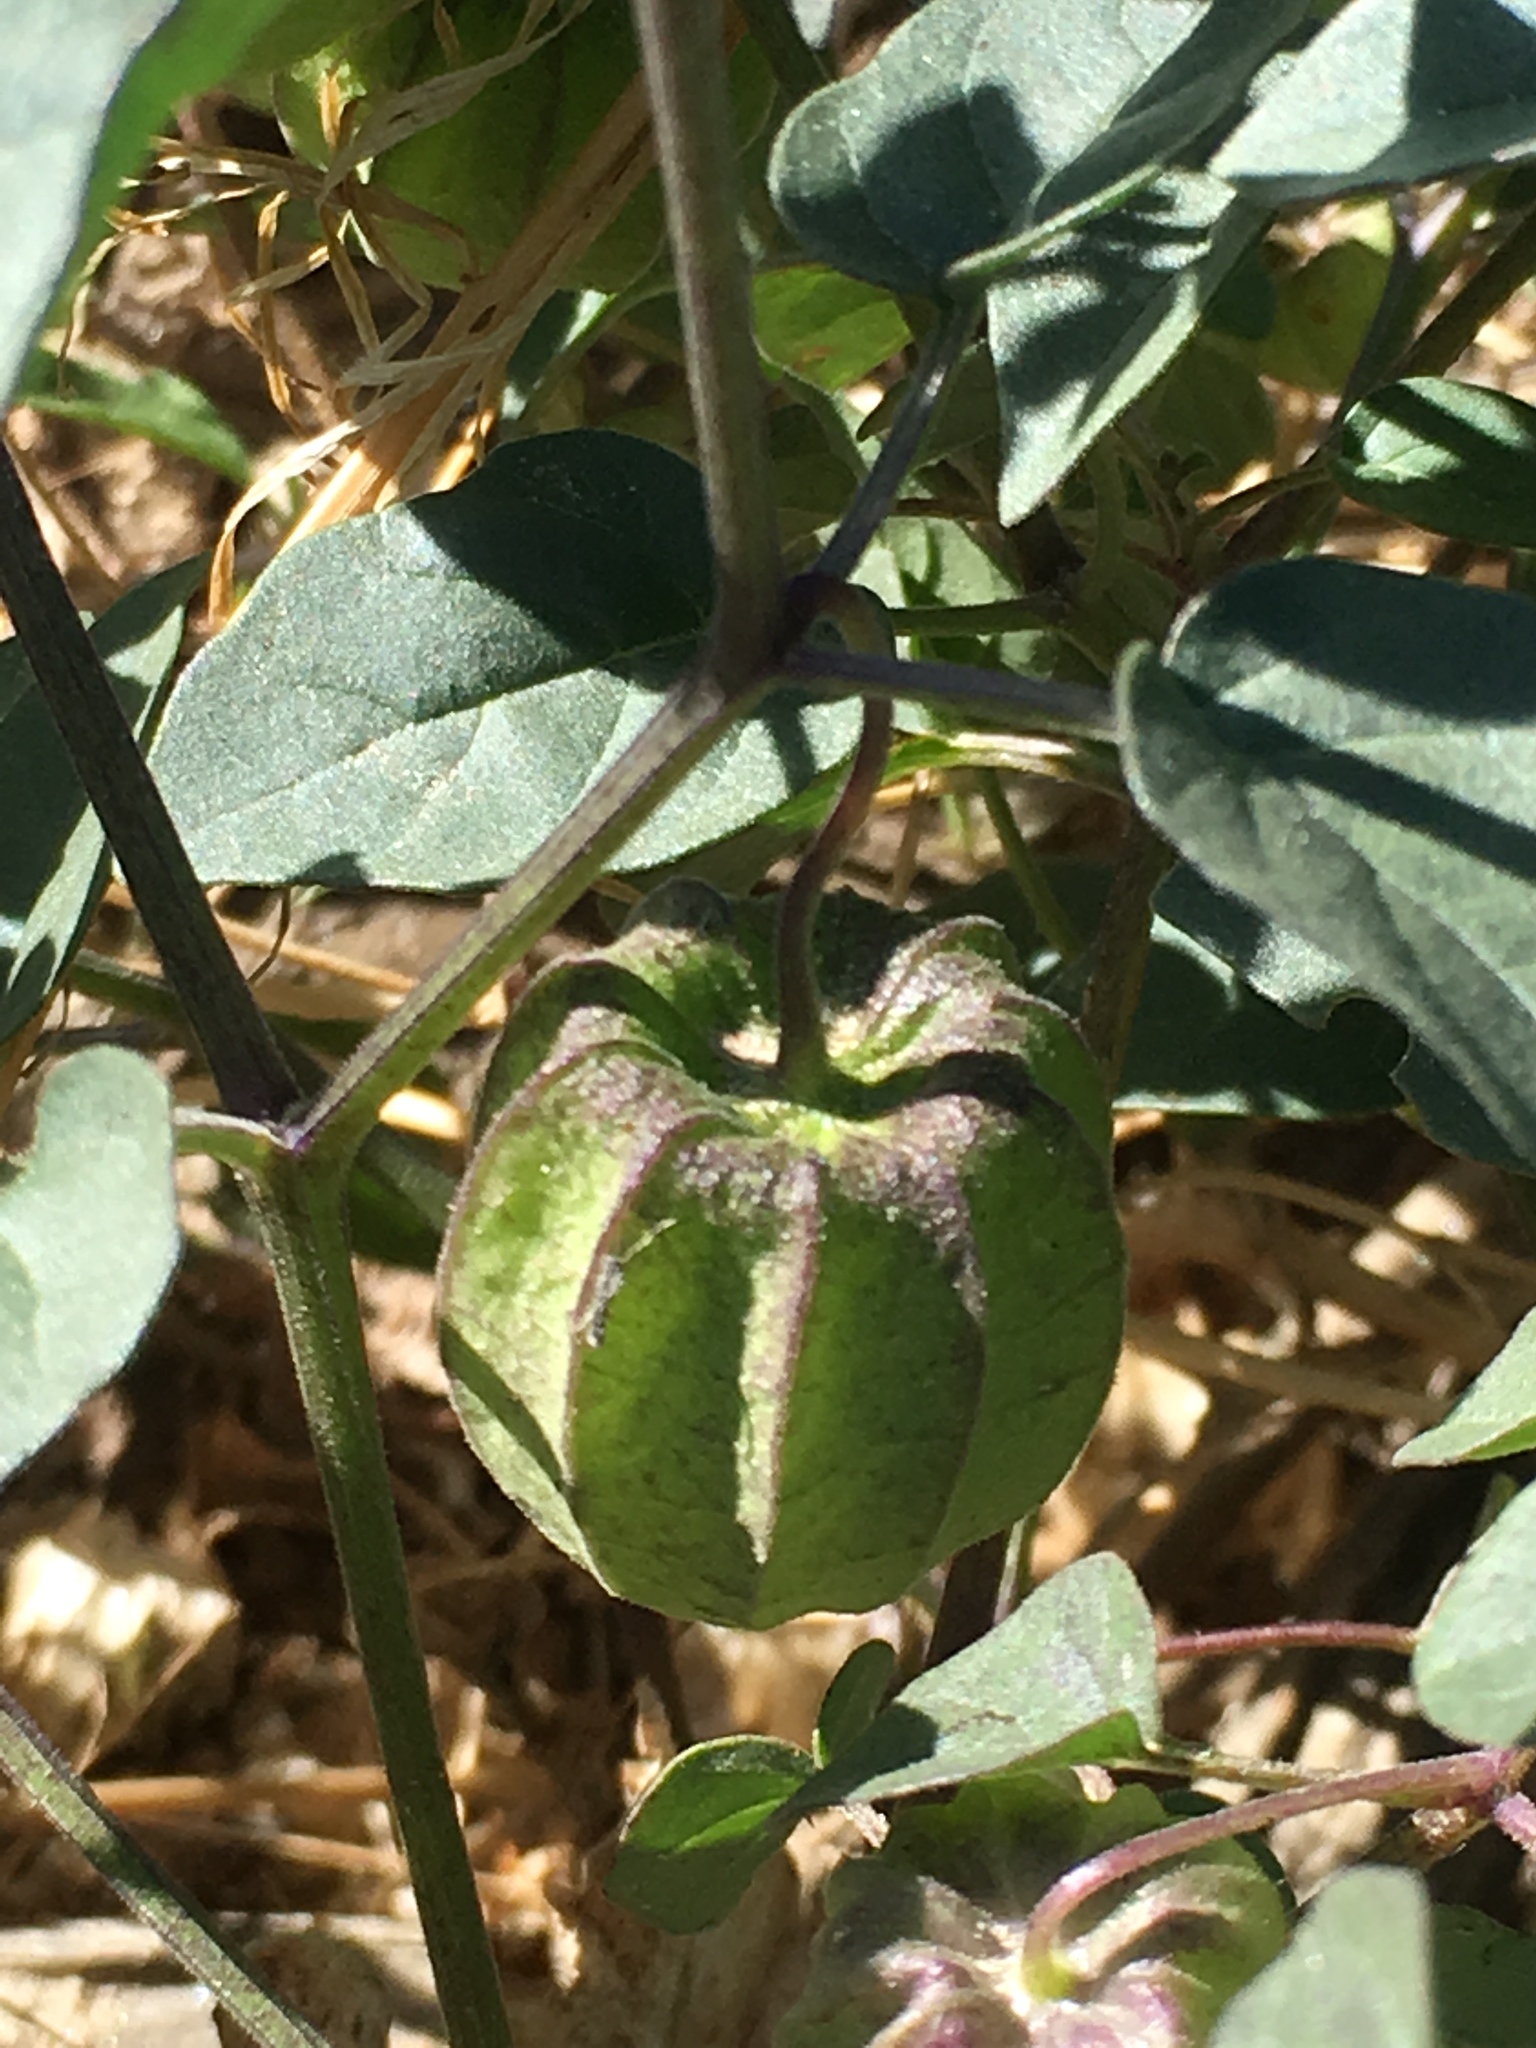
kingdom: Plantae
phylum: Tracheophyta
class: Magnoliopsida
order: Solanales
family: Solanaceae
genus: Physalis
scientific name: Physalis crassifolia
